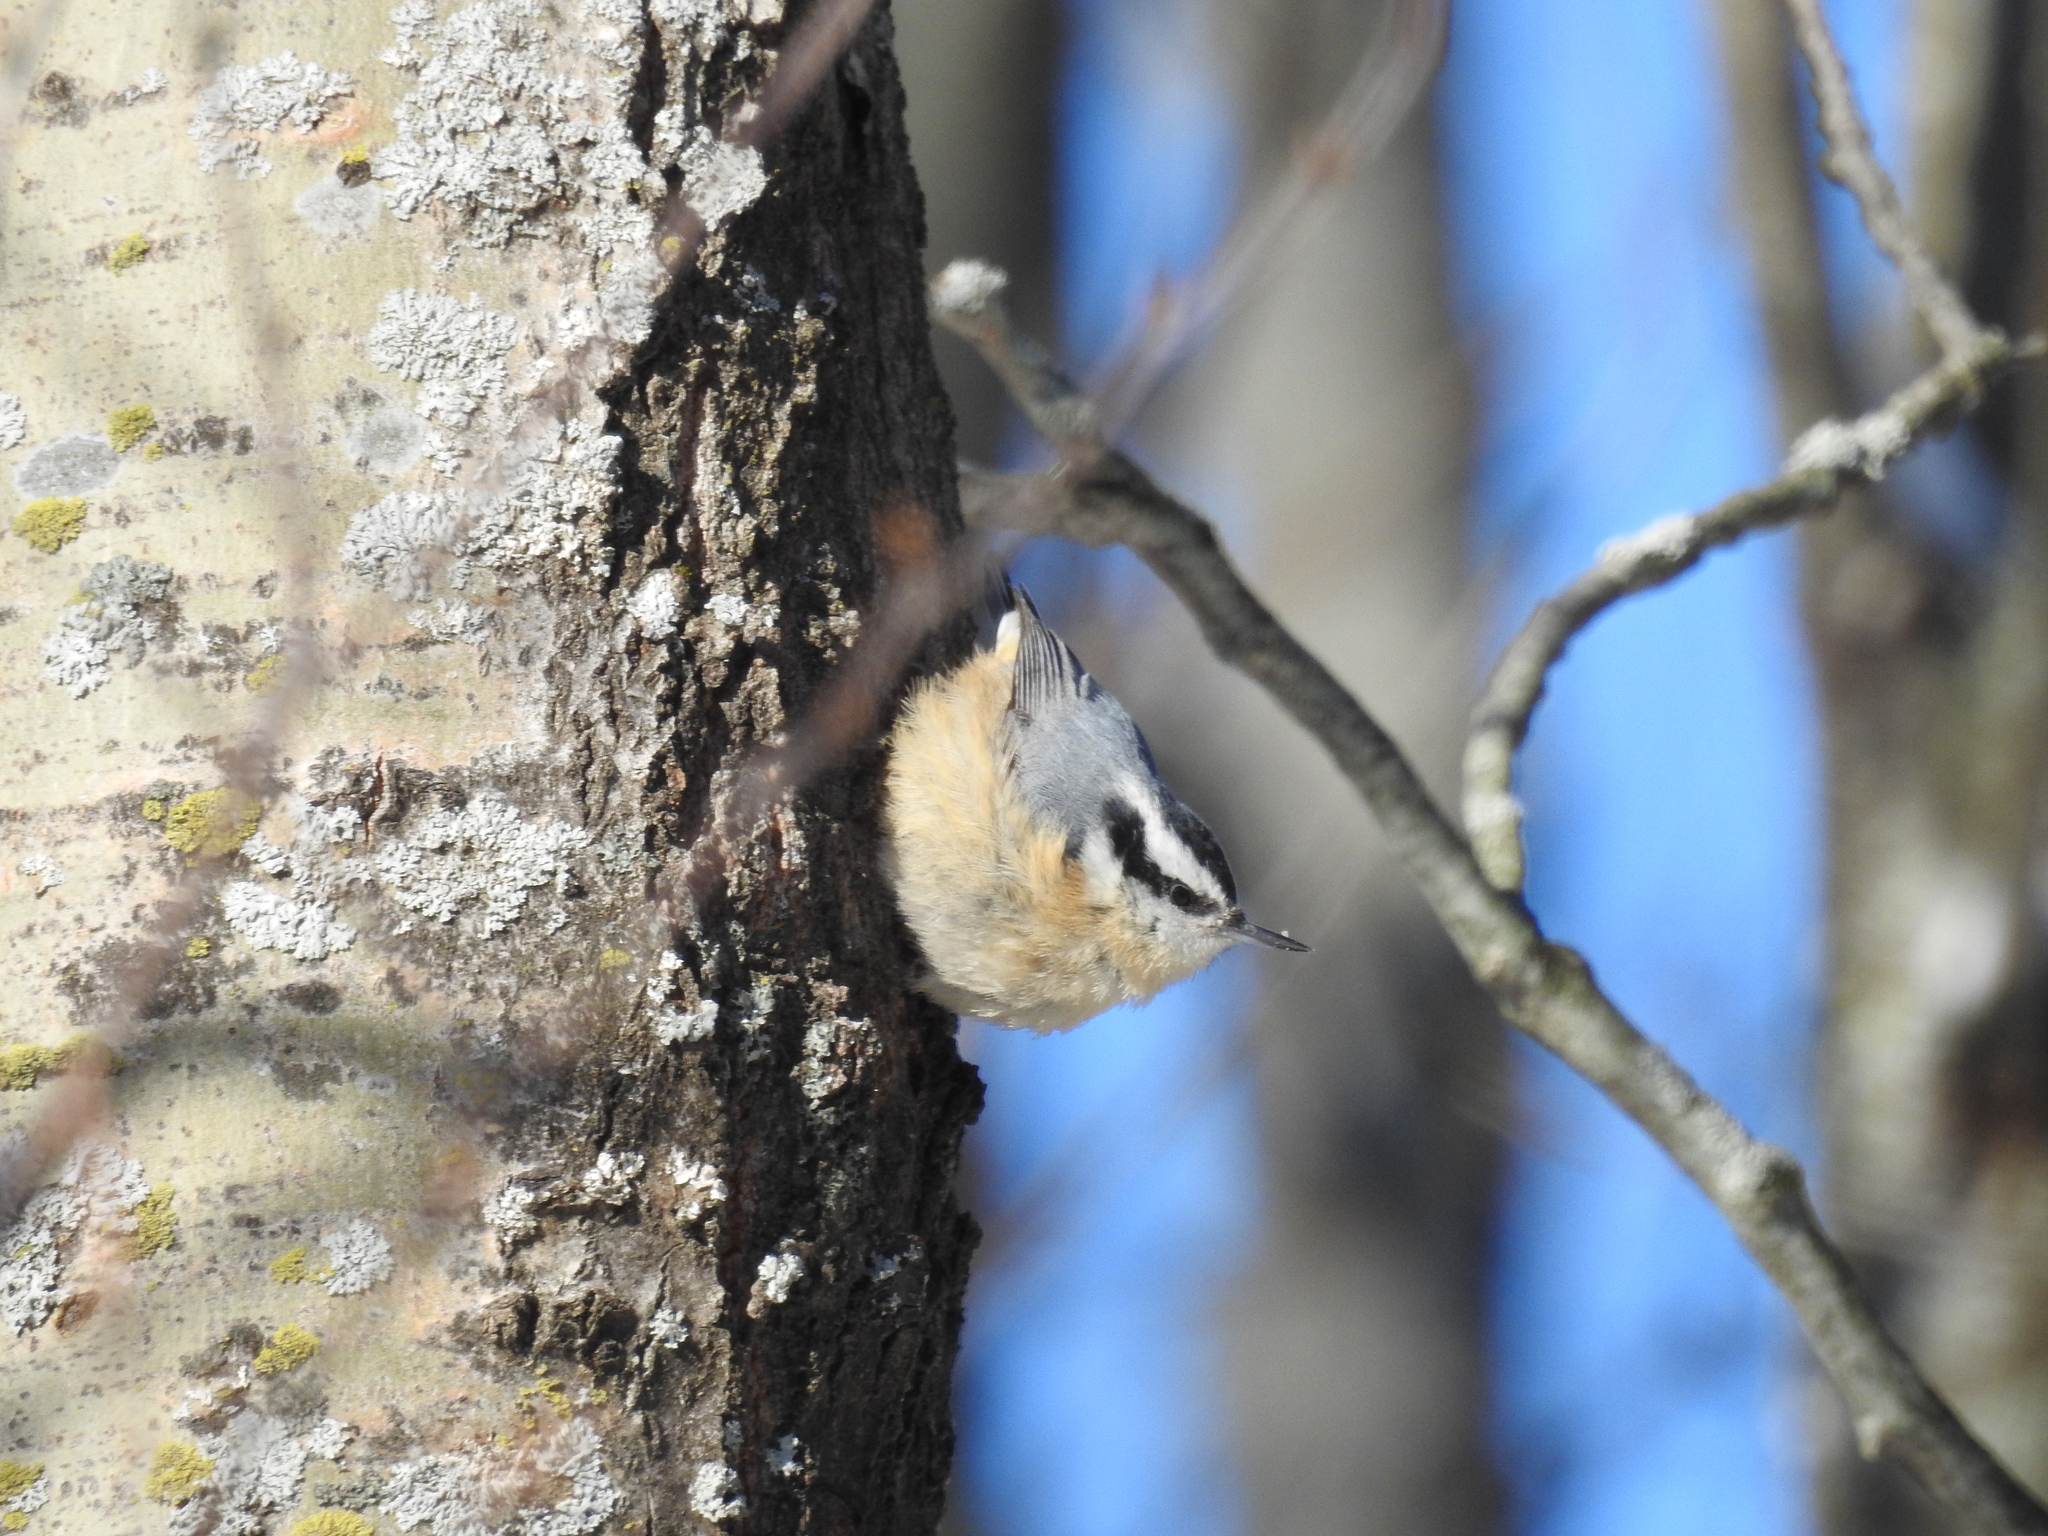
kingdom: Animalia
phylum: Chordata
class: Aves
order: Passeriformes
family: Sittidae
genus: Sitta
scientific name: Sitta canadensis
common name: Red-breasted nuthatch
